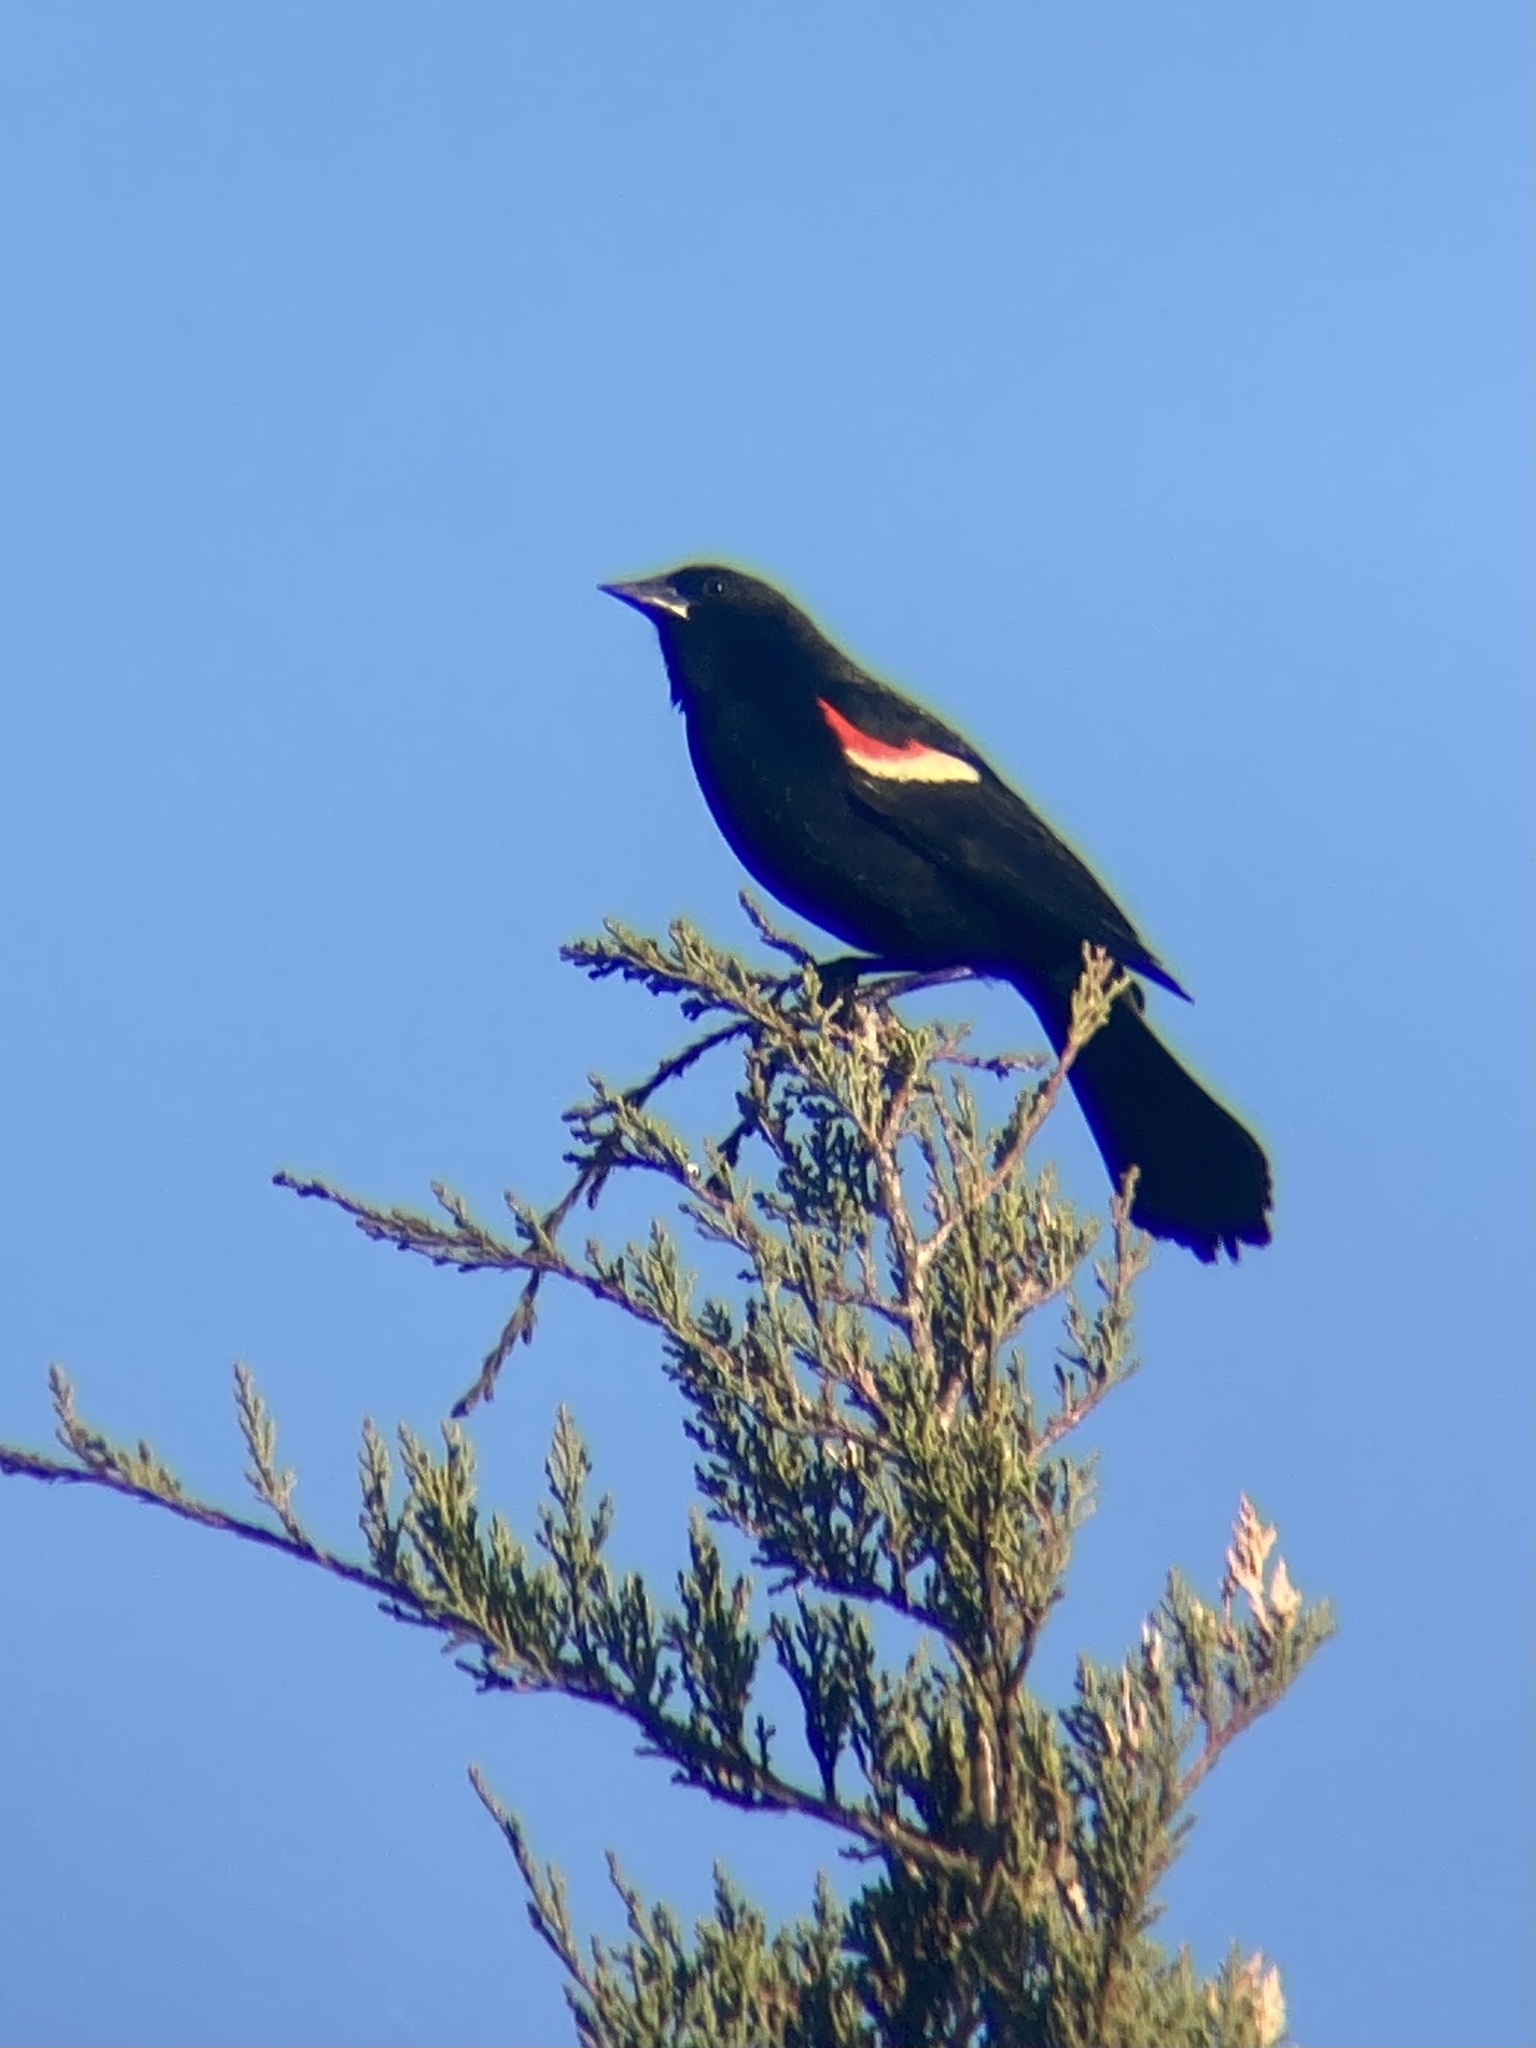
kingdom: Animalia
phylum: Chordata
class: Aves
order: Passeriformes
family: Icteridae
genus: Agelaius
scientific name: Agelaius phoeniceus
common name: Red-winged blackbird
